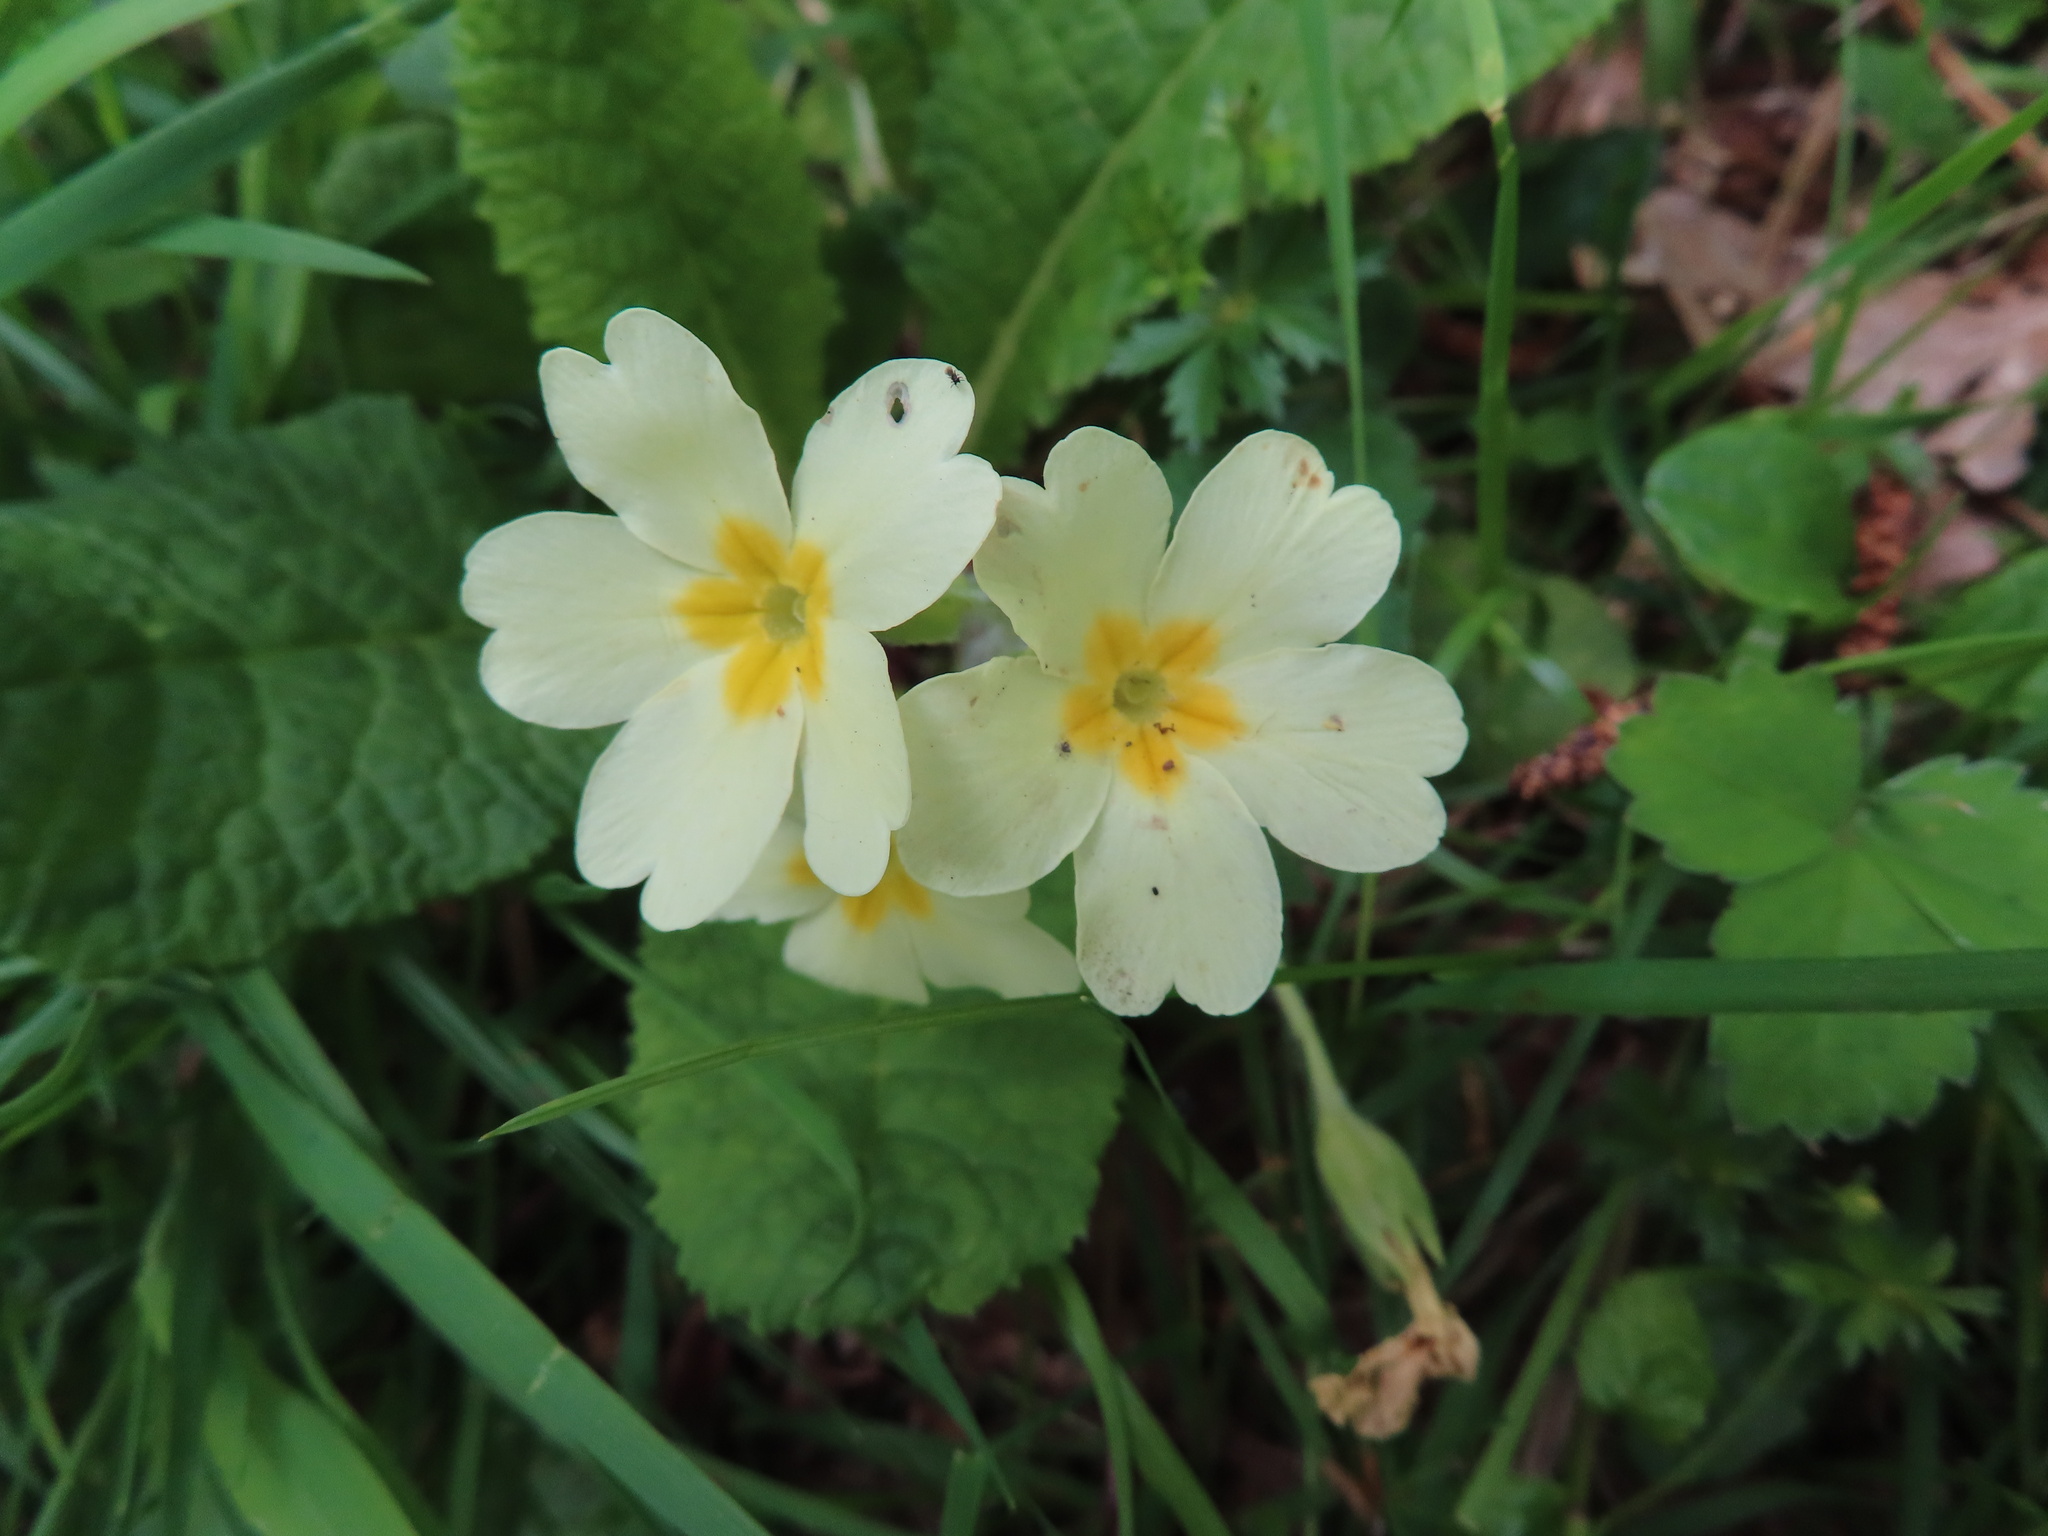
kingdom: Plantae
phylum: Tracheophyta
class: Magnoliopsida
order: Ericales
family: Primulaceae
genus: Primula
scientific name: Primula vulgaris
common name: Primrose
